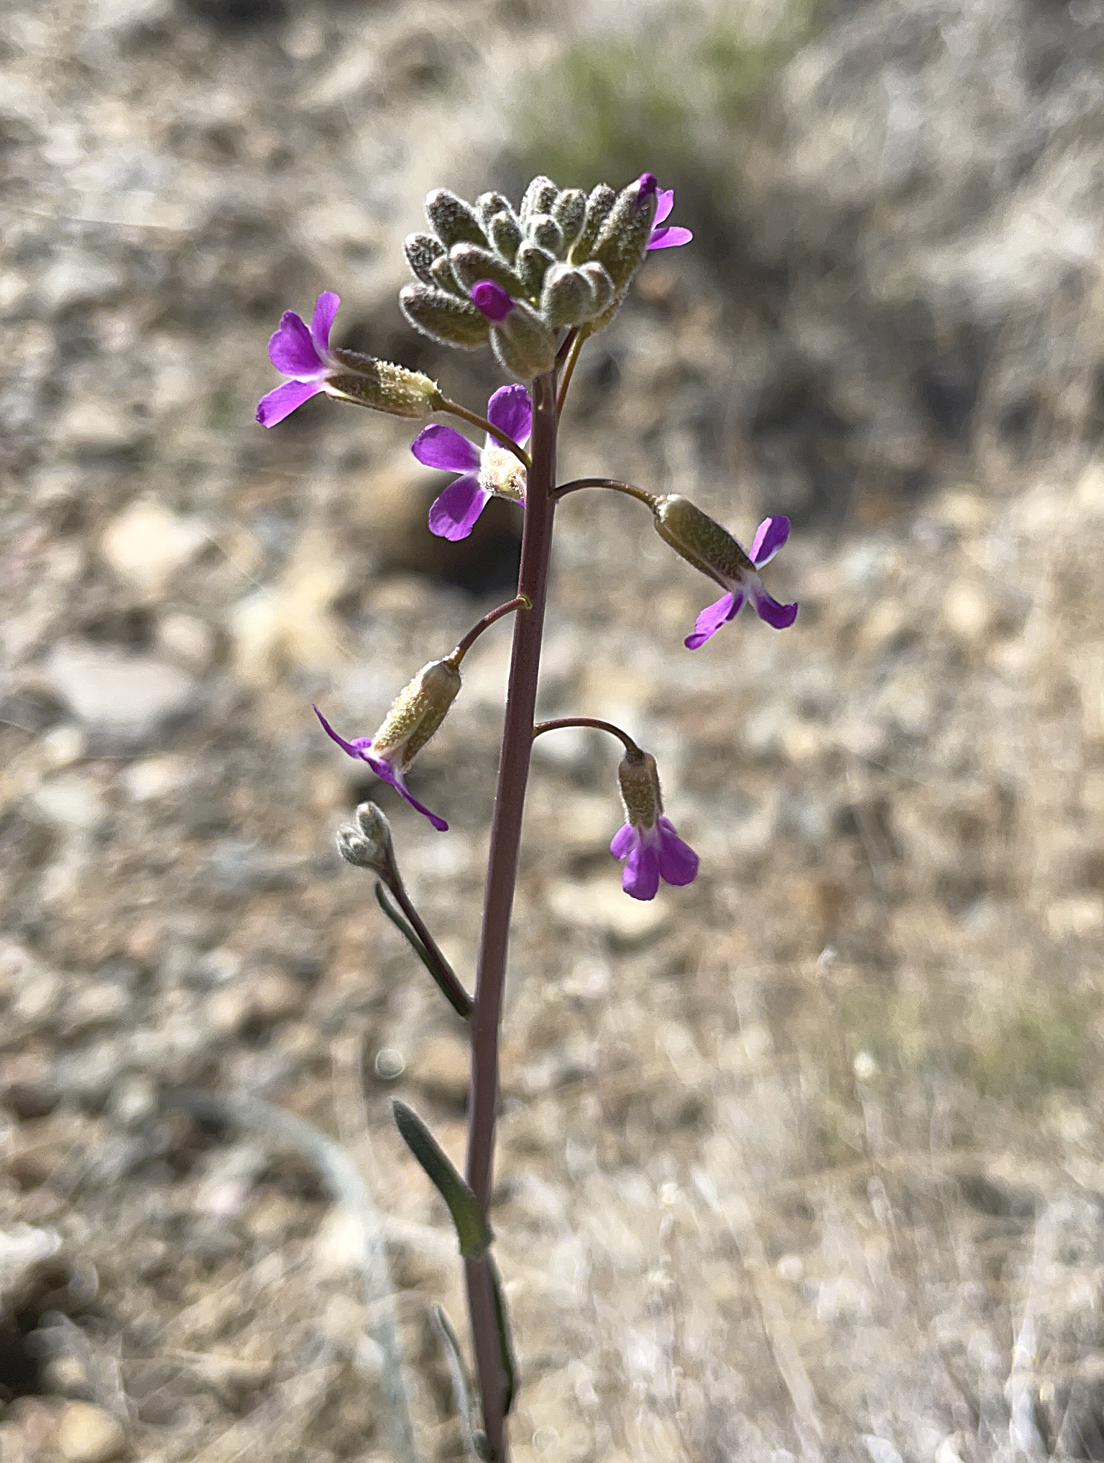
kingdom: Plantae
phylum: Tracheophyta
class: Magnoliopsida
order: Brassicales
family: Brassicaceae
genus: Boechera
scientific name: Boechera xylopoda
